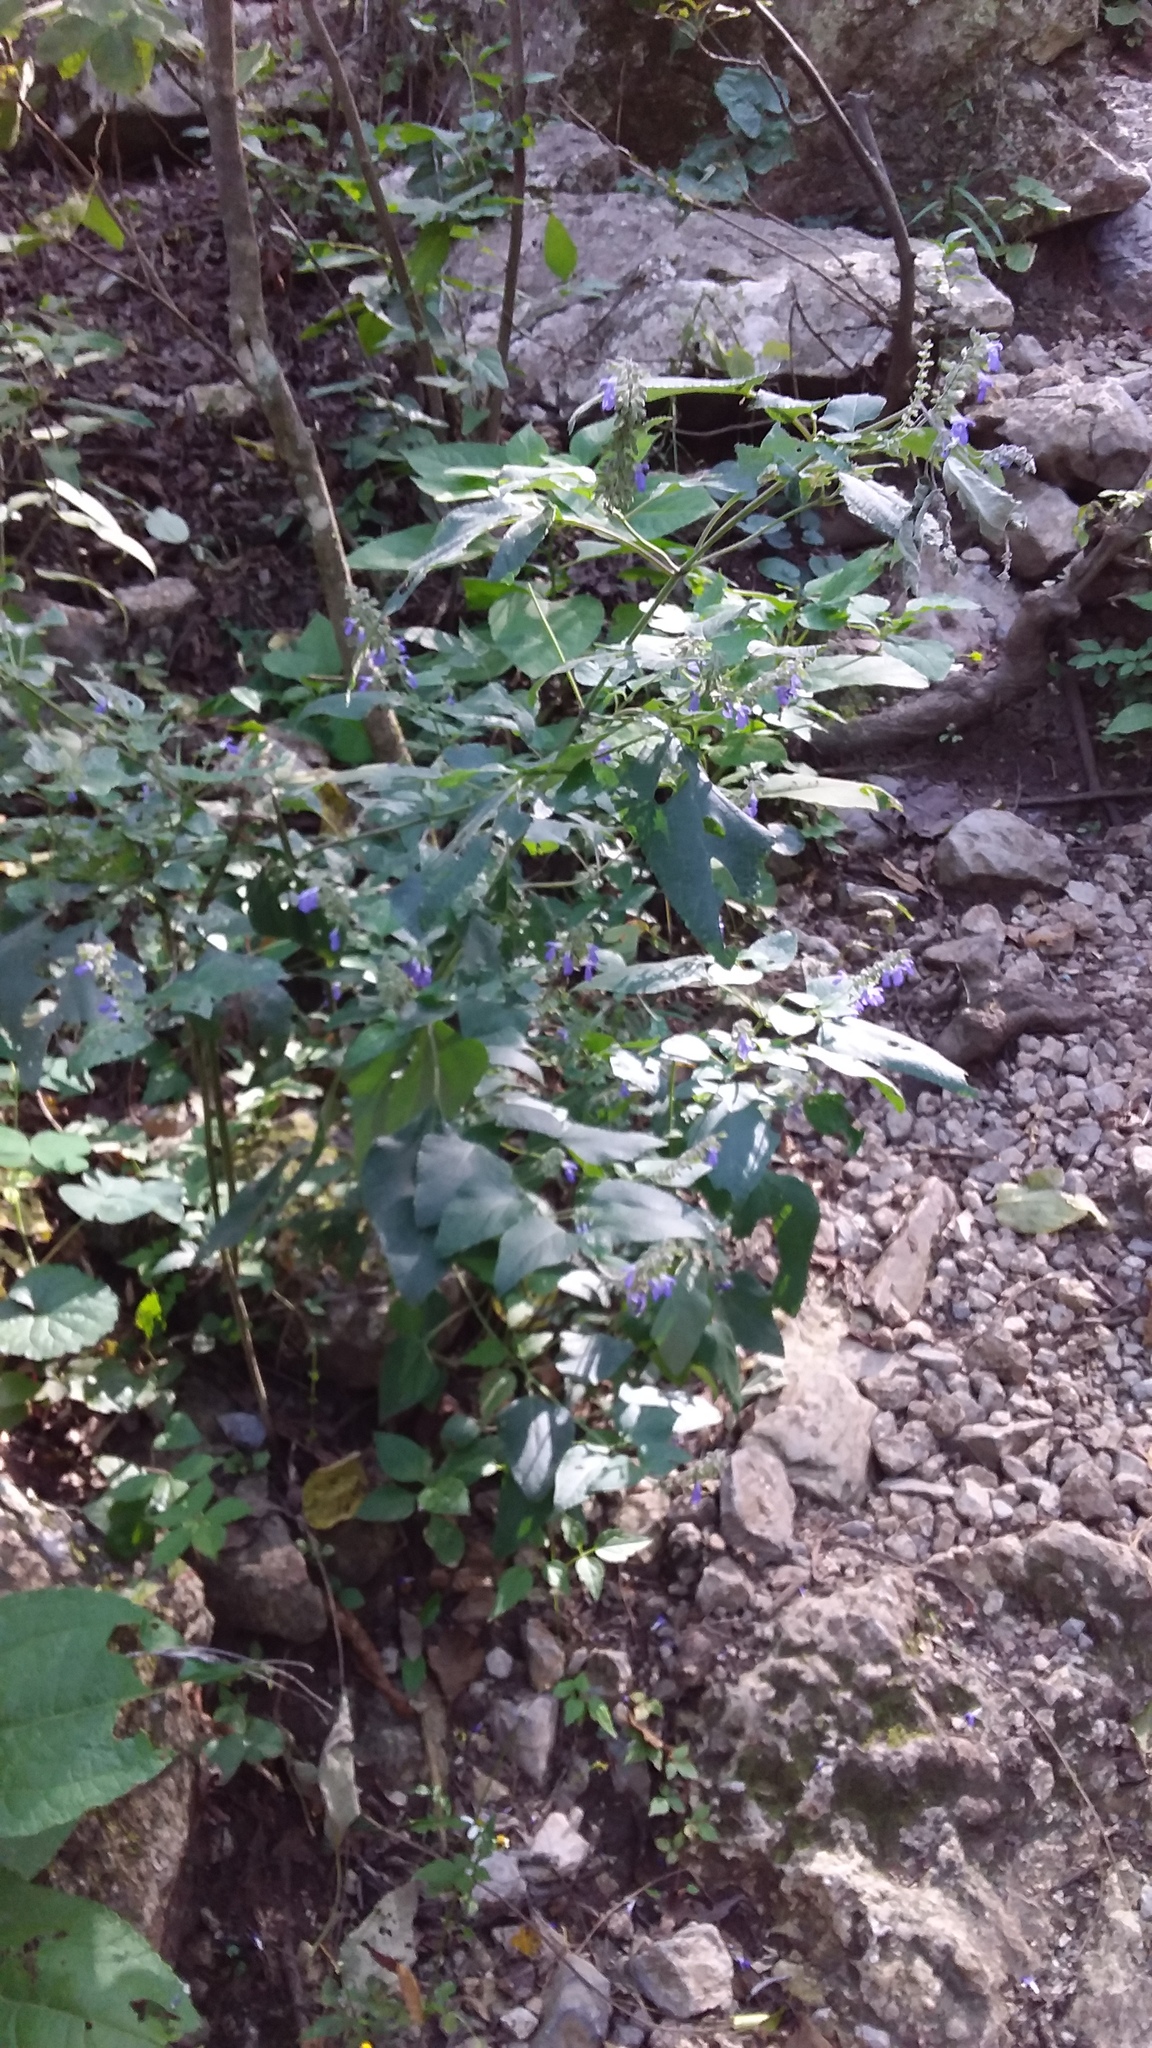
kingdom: Plantae
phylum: Tracheophyta
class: Magnoliopsida
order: Lamiales
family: Lamiaceae
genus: Salvia
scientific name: Salvia urolepis
